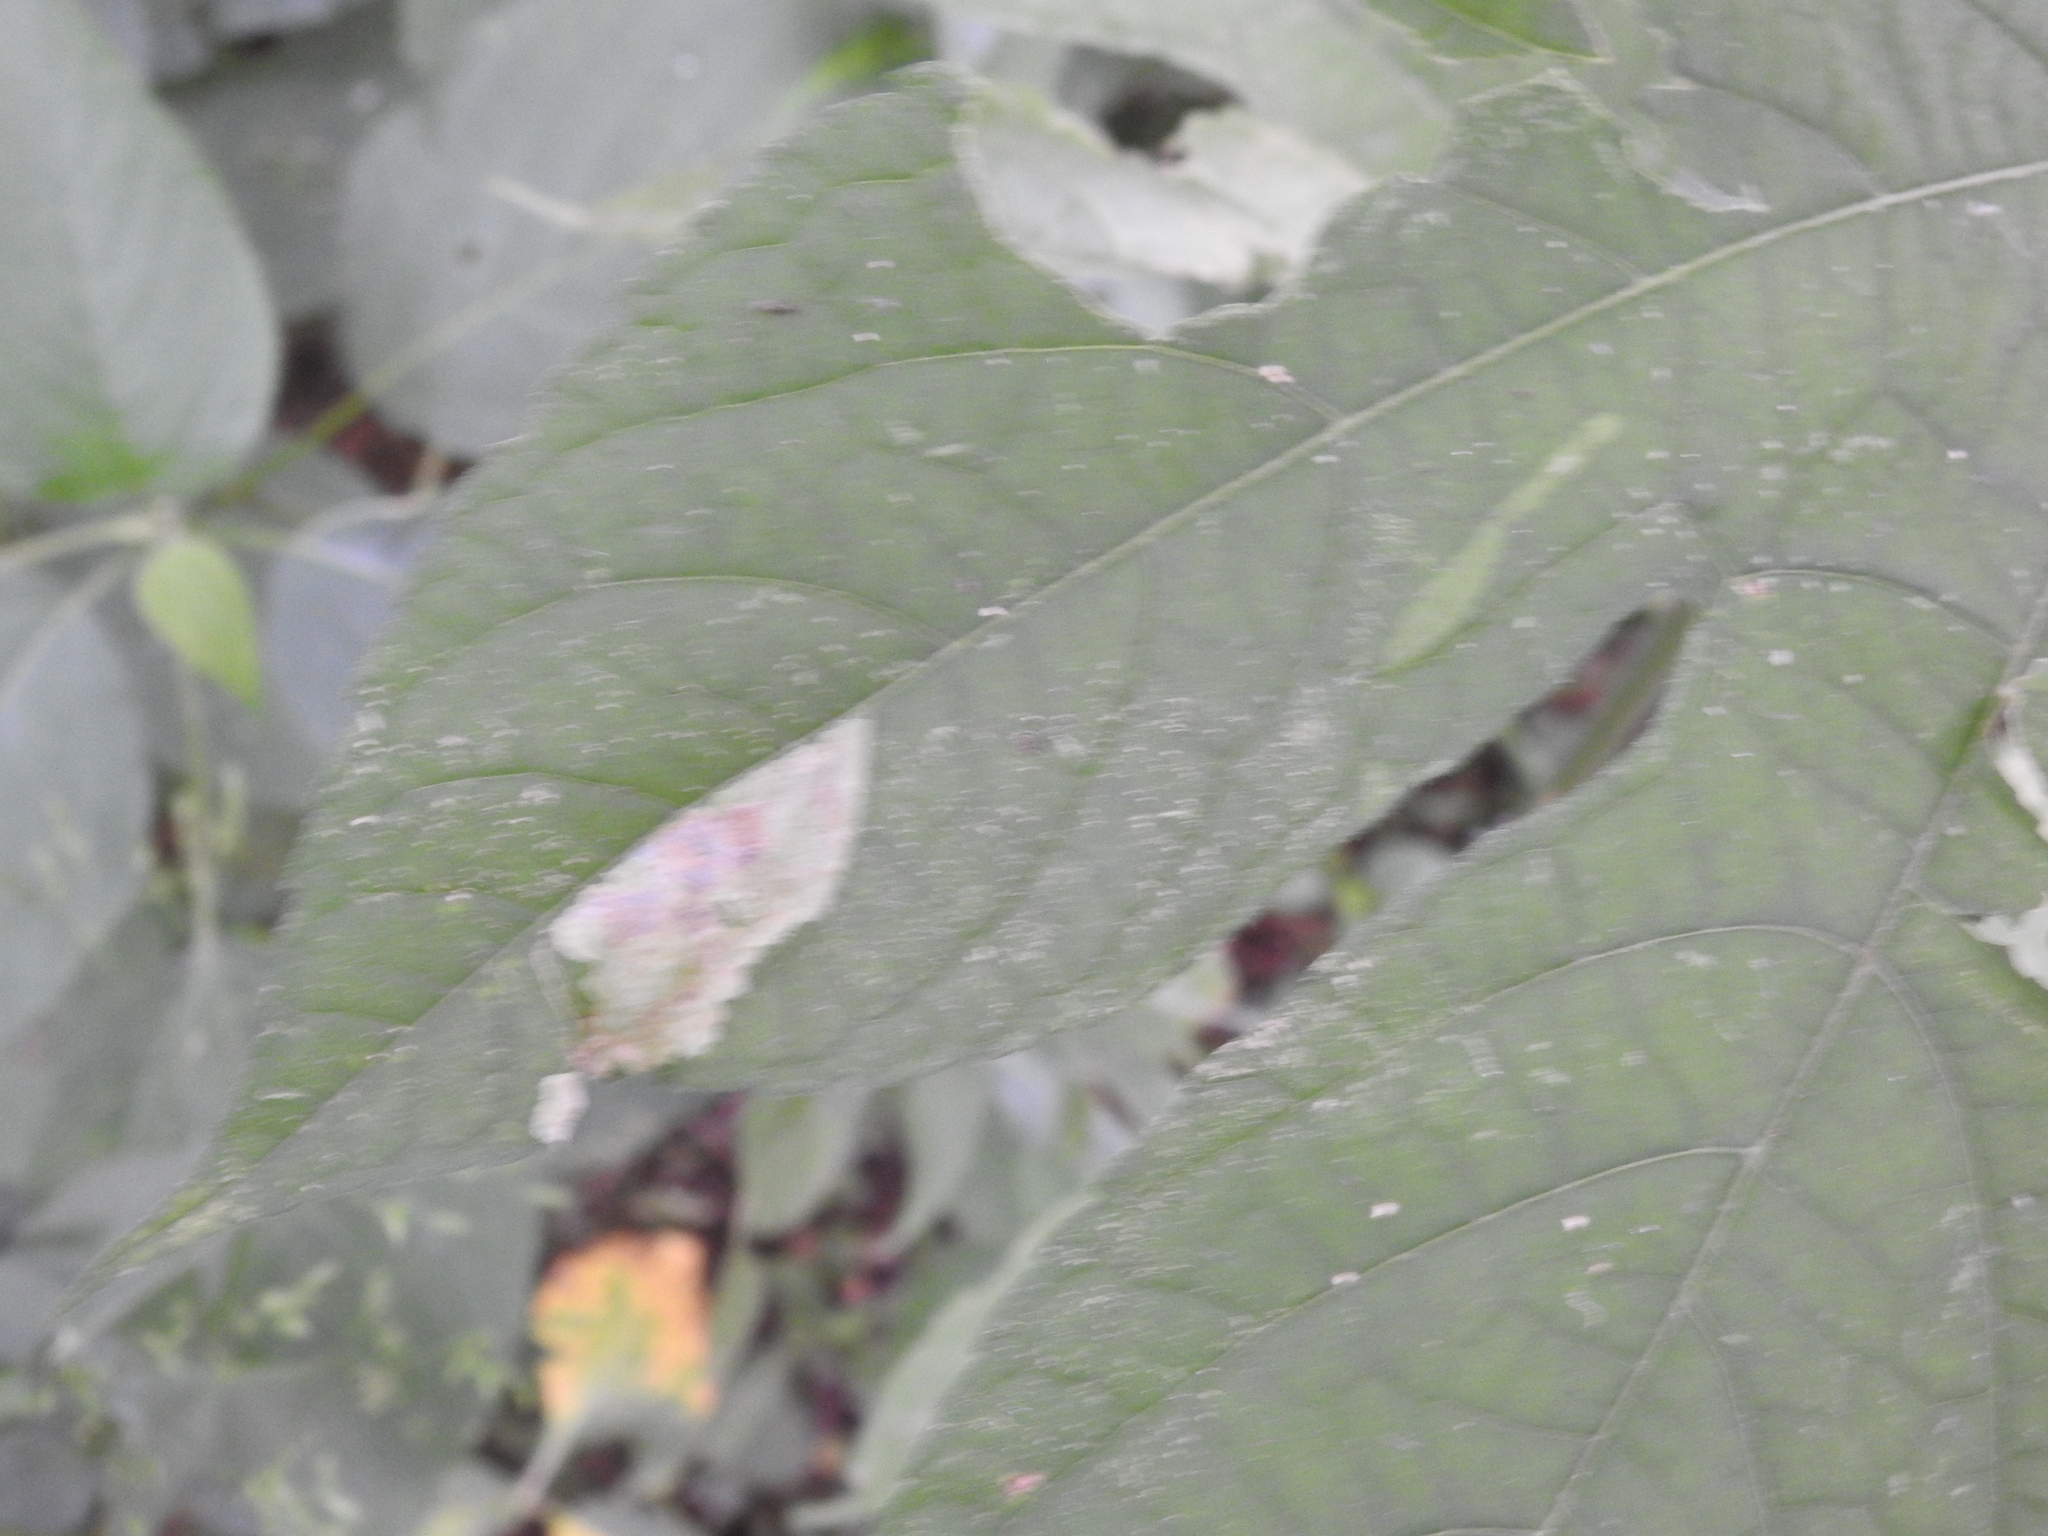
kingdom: Animalia
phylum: Arthropoda
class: Insecta
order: Diptera
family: Agromyzidae
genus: Calycomyza
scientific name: Calycomyza ambrosiae
